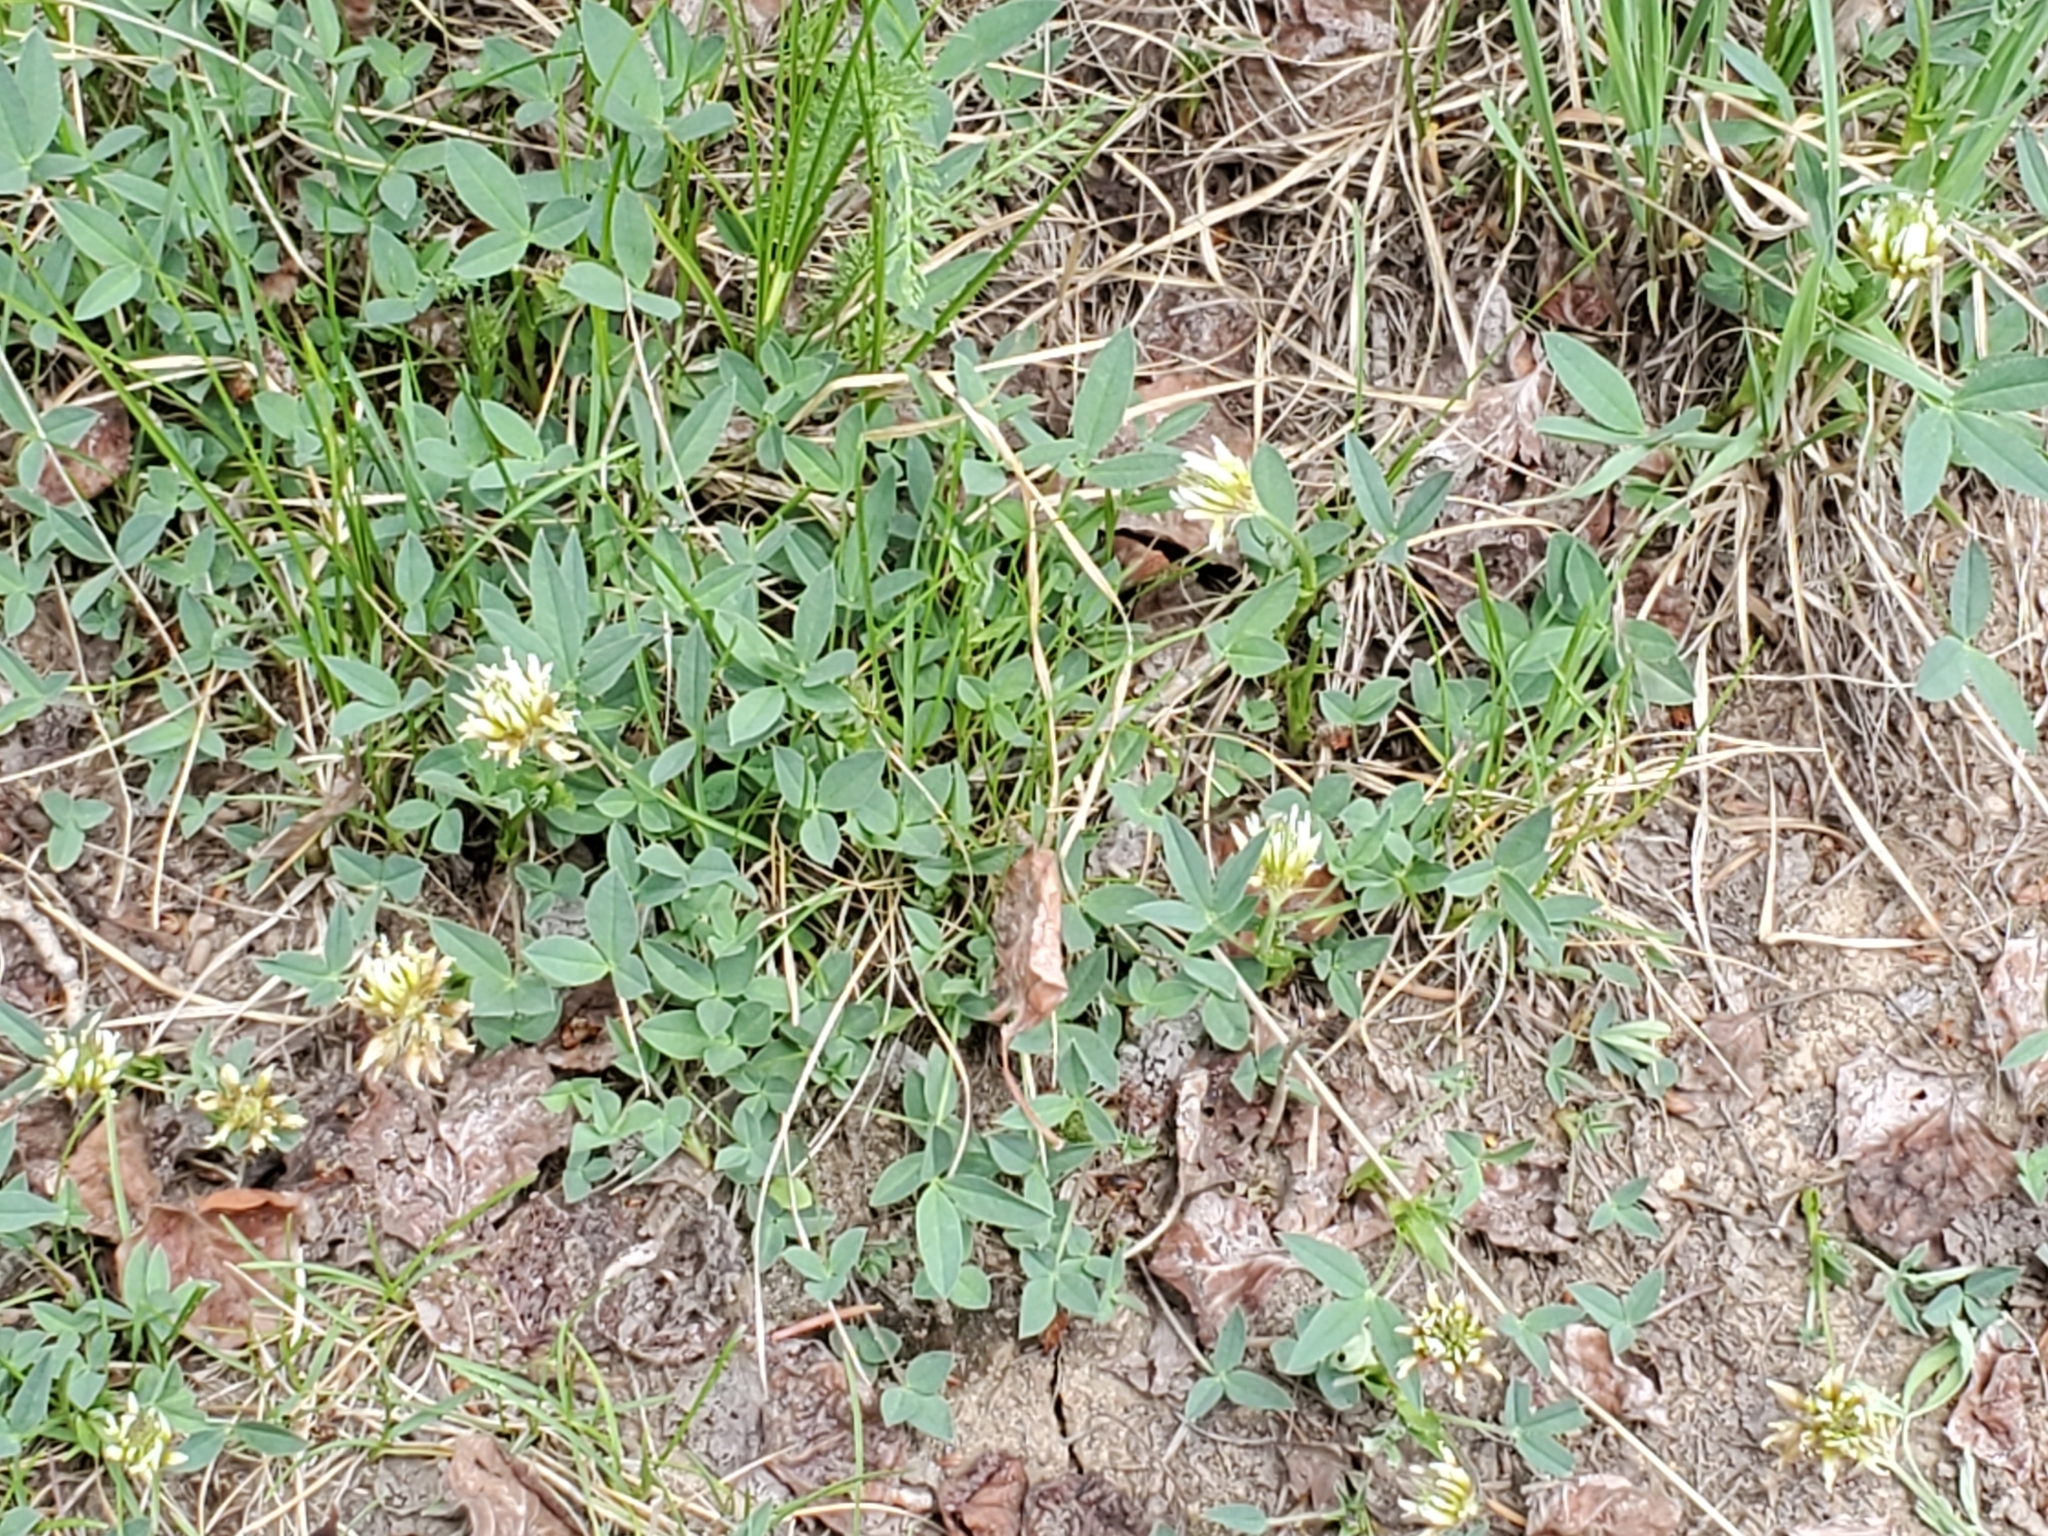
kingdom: Plantae
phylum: Tracheophyta
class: Magnoliopsida
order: Fabales
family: Fabaceae
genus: Trifolium
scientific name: Trifolium longipes
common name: Long-stalk clover
